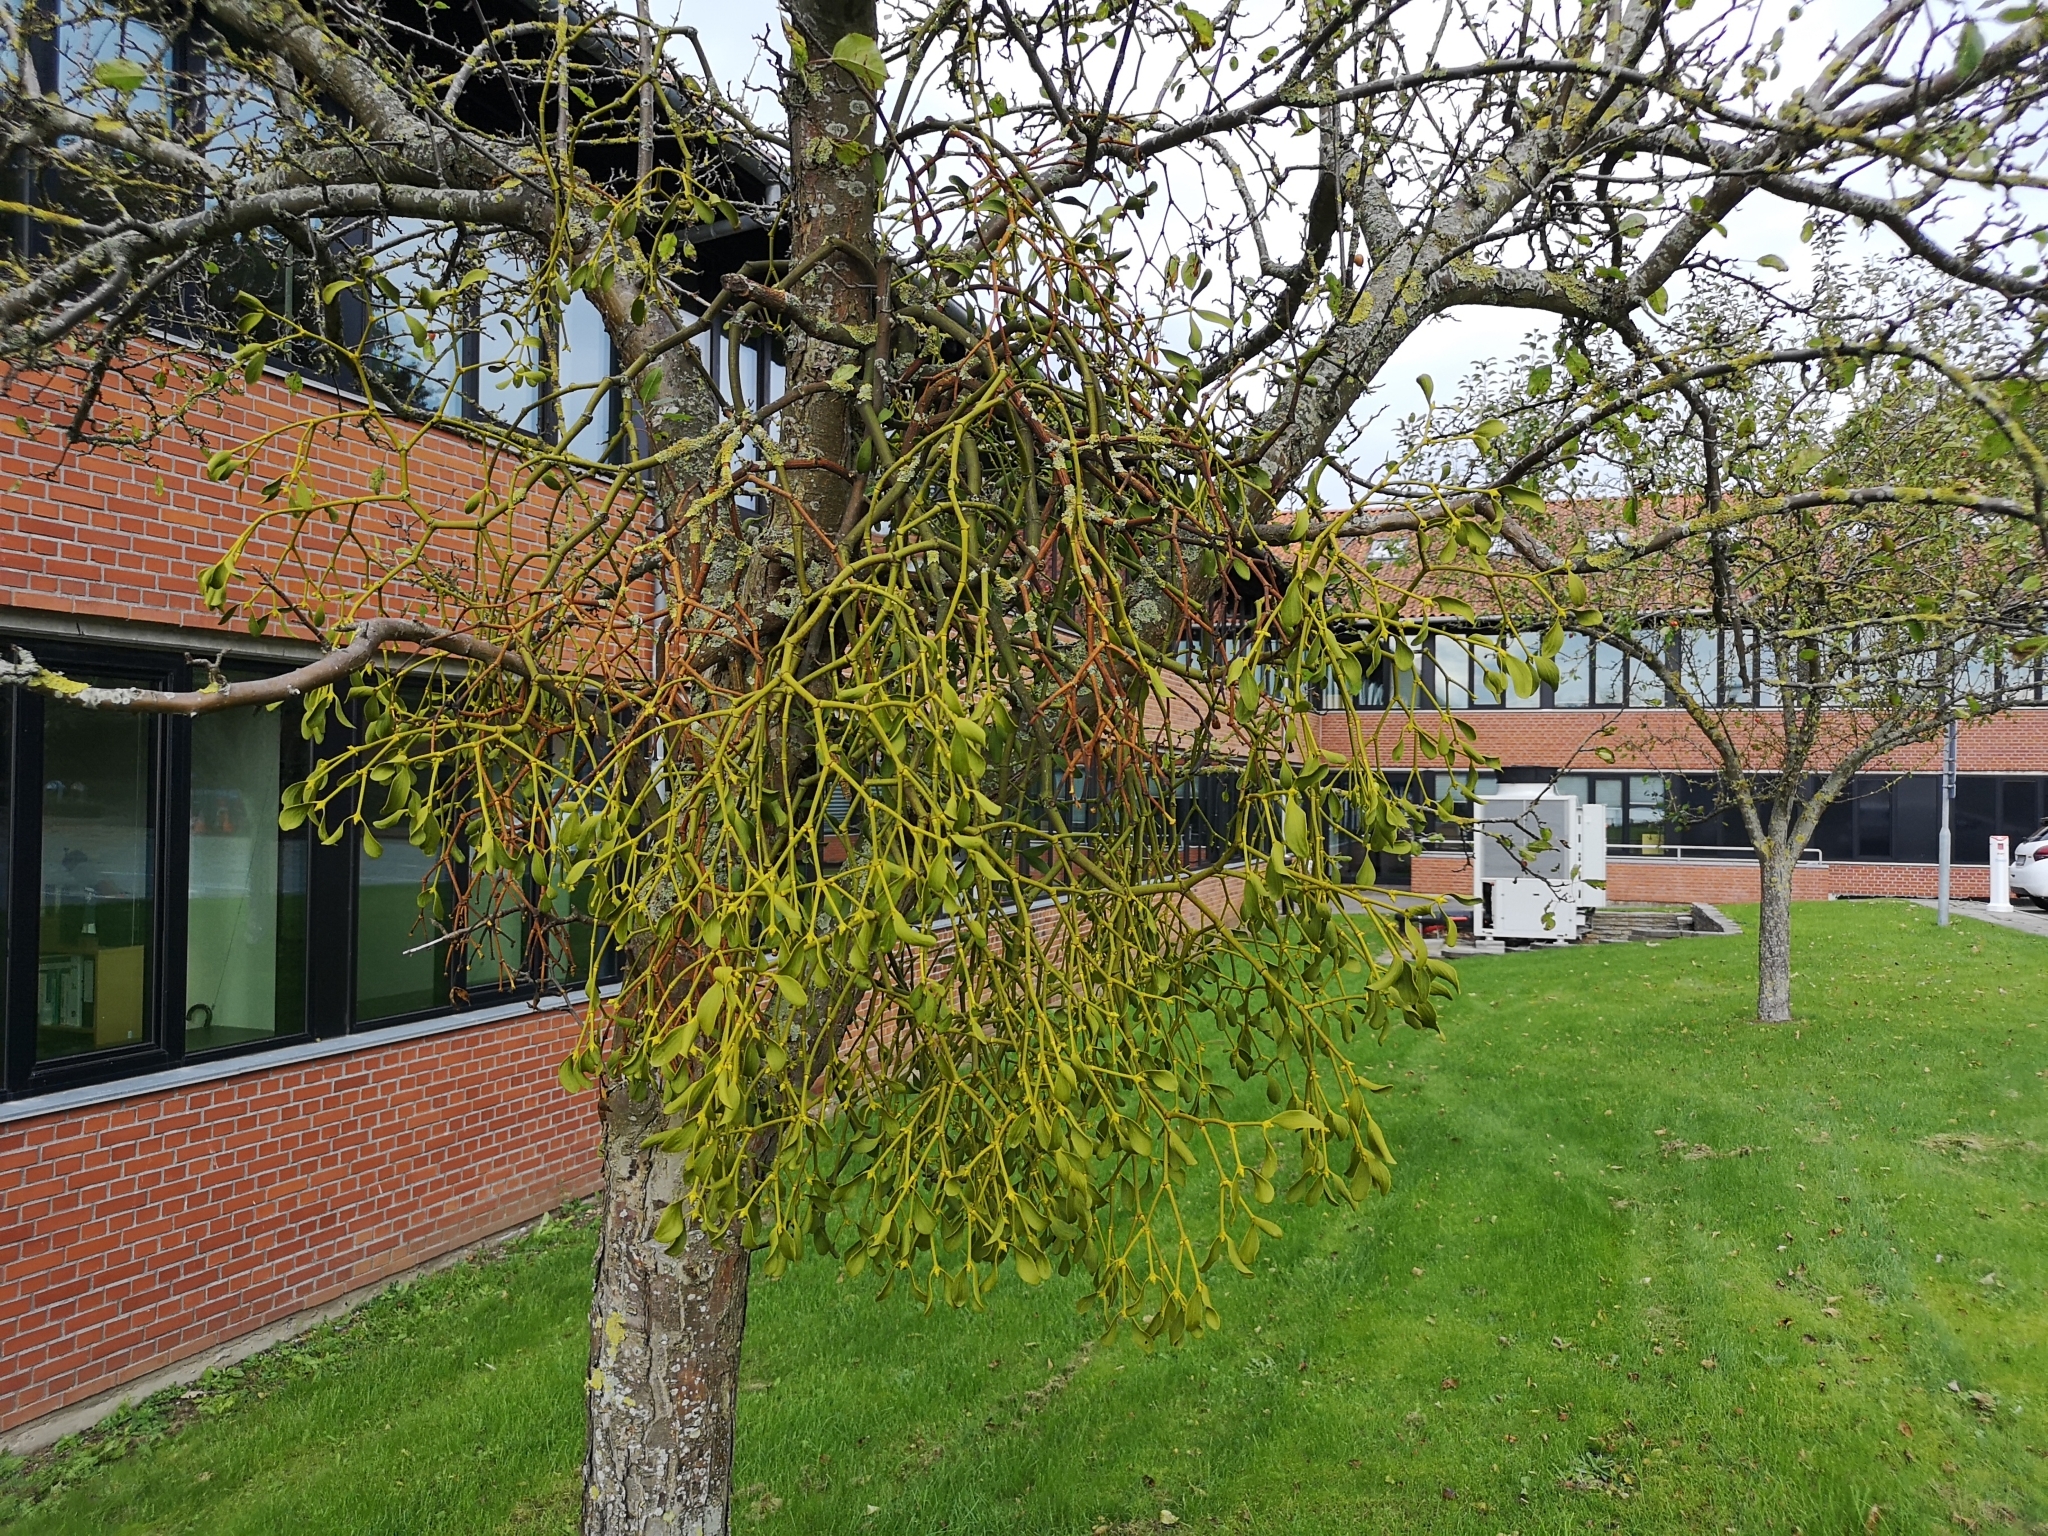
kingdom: Plantae
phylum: Tracheophyta
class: Magnoliopsida
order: Santalales
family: Viscaceae
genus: Viscum
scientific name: Viscum album
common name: Mistletoe
